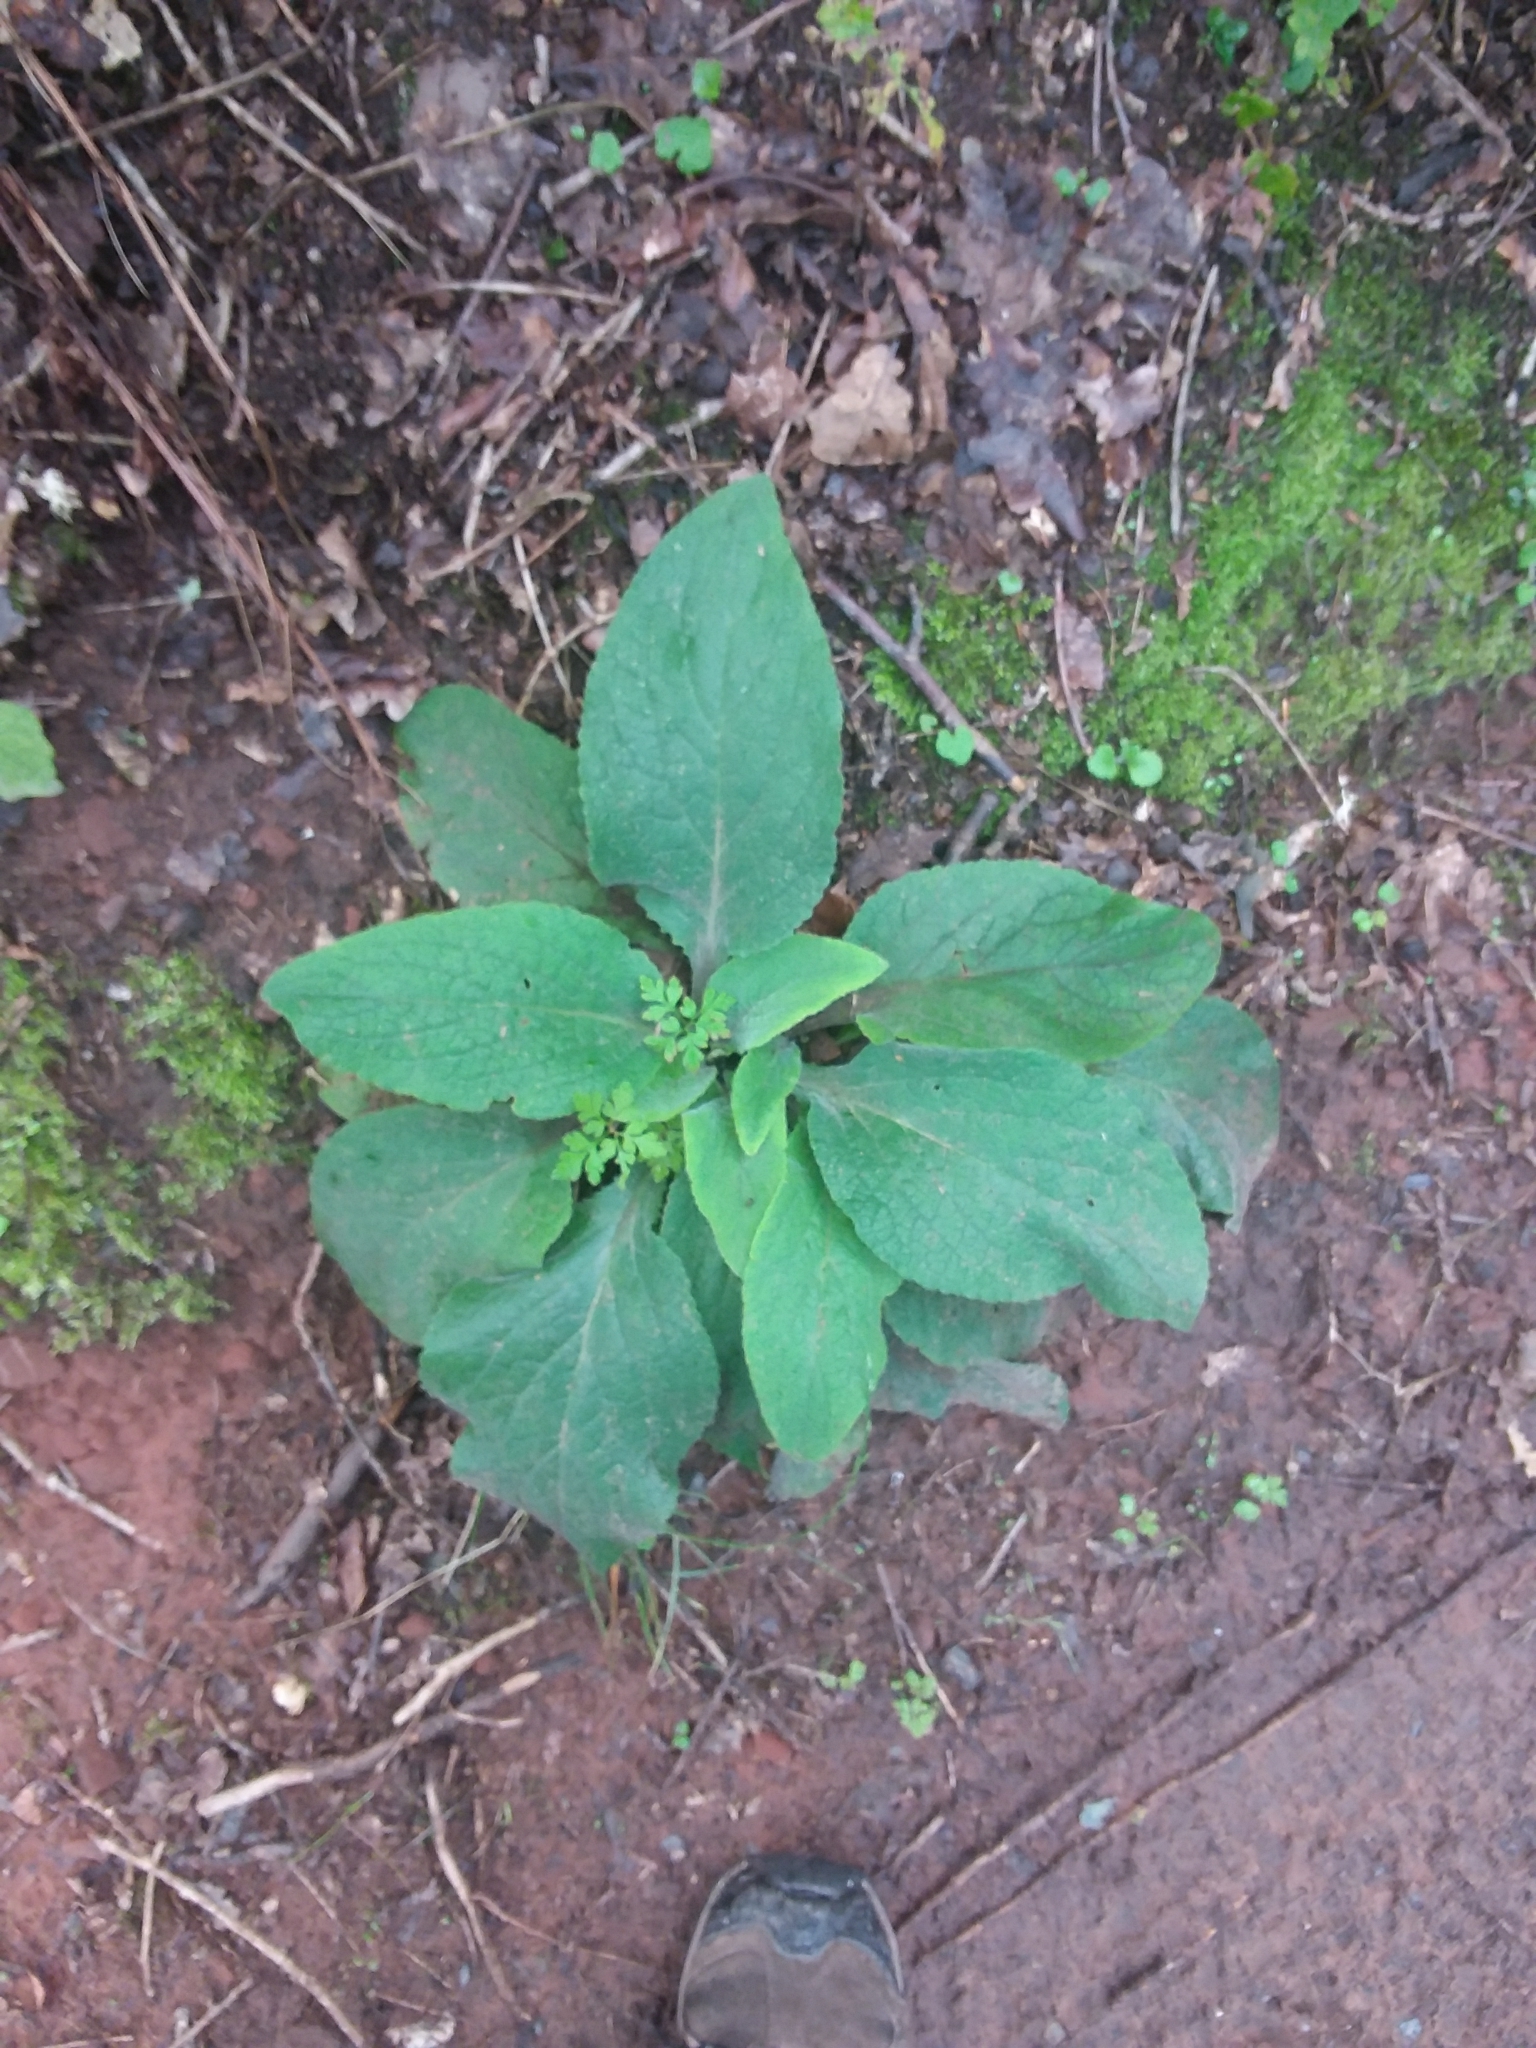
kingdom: Plantae
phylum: Tracheophyta
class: Magnoliopsida
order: Lamiales
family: Plantaginaceae
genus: Digitalis
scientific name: Digitalis purpurea
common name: Foxglove
